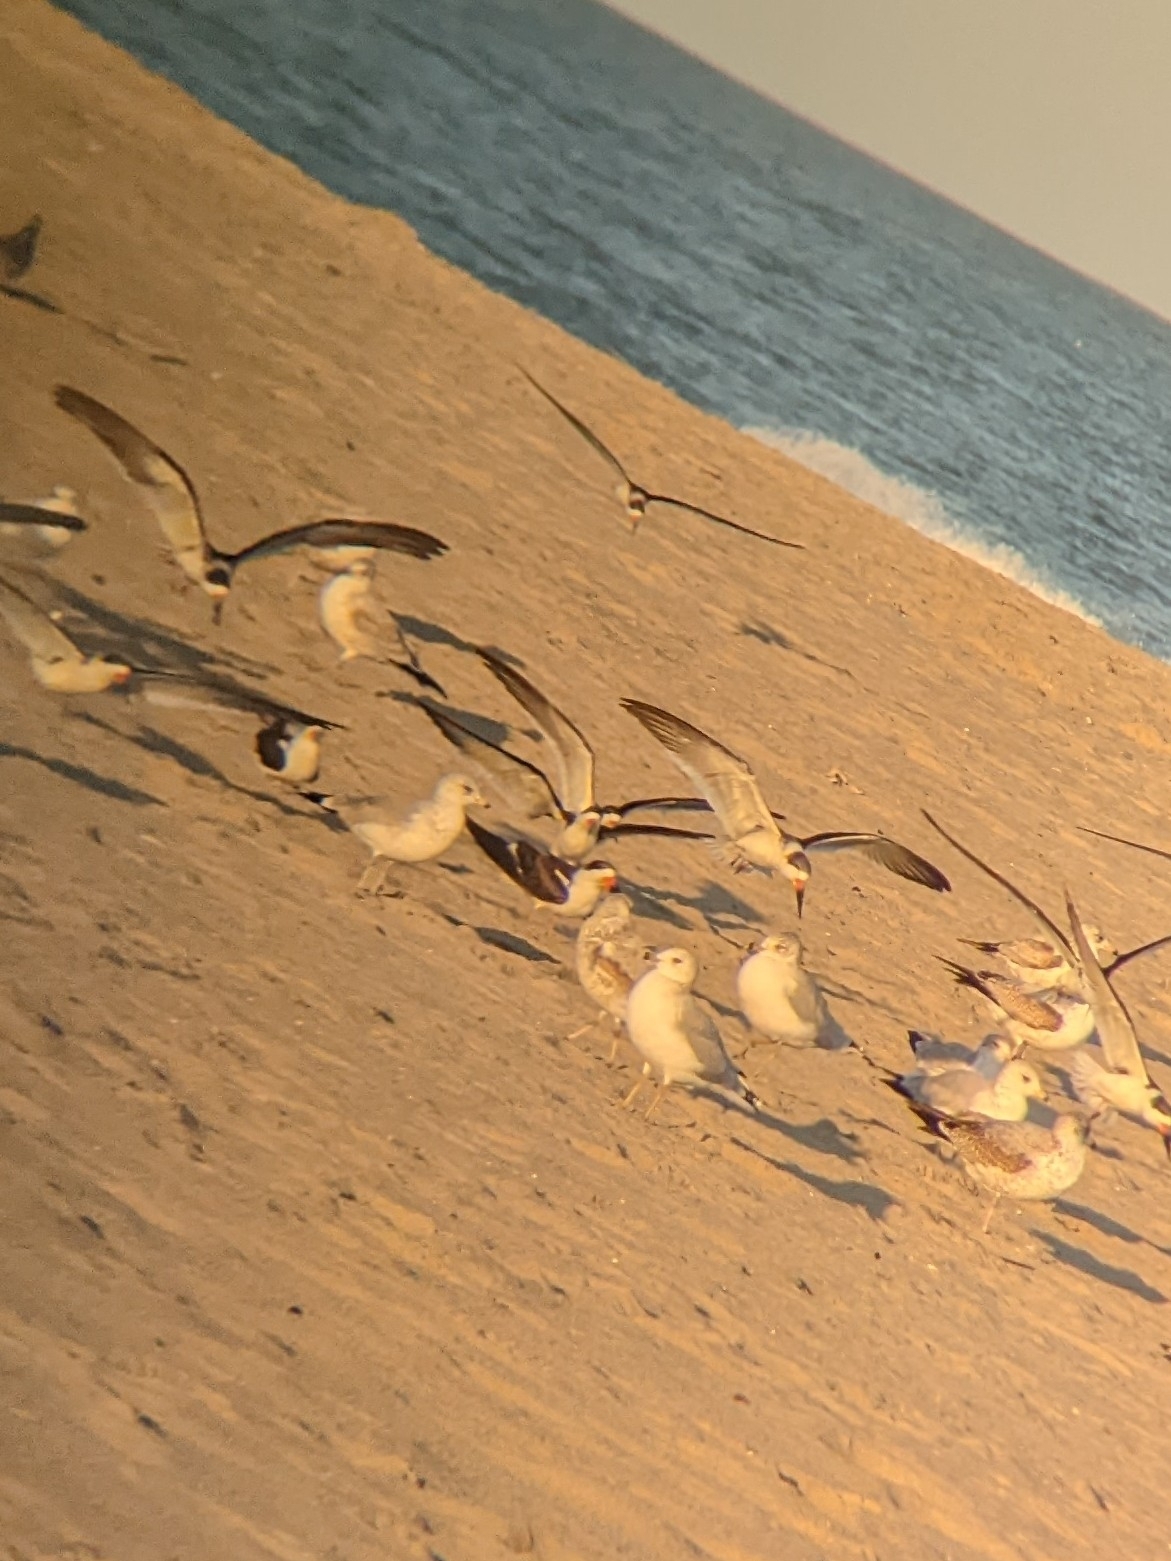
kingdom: Animalia
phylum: Chordata
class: Aves
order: Charadriiformes
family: Laridae
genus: Rynchops
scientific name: Rynchops niger
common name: Black skimmer
